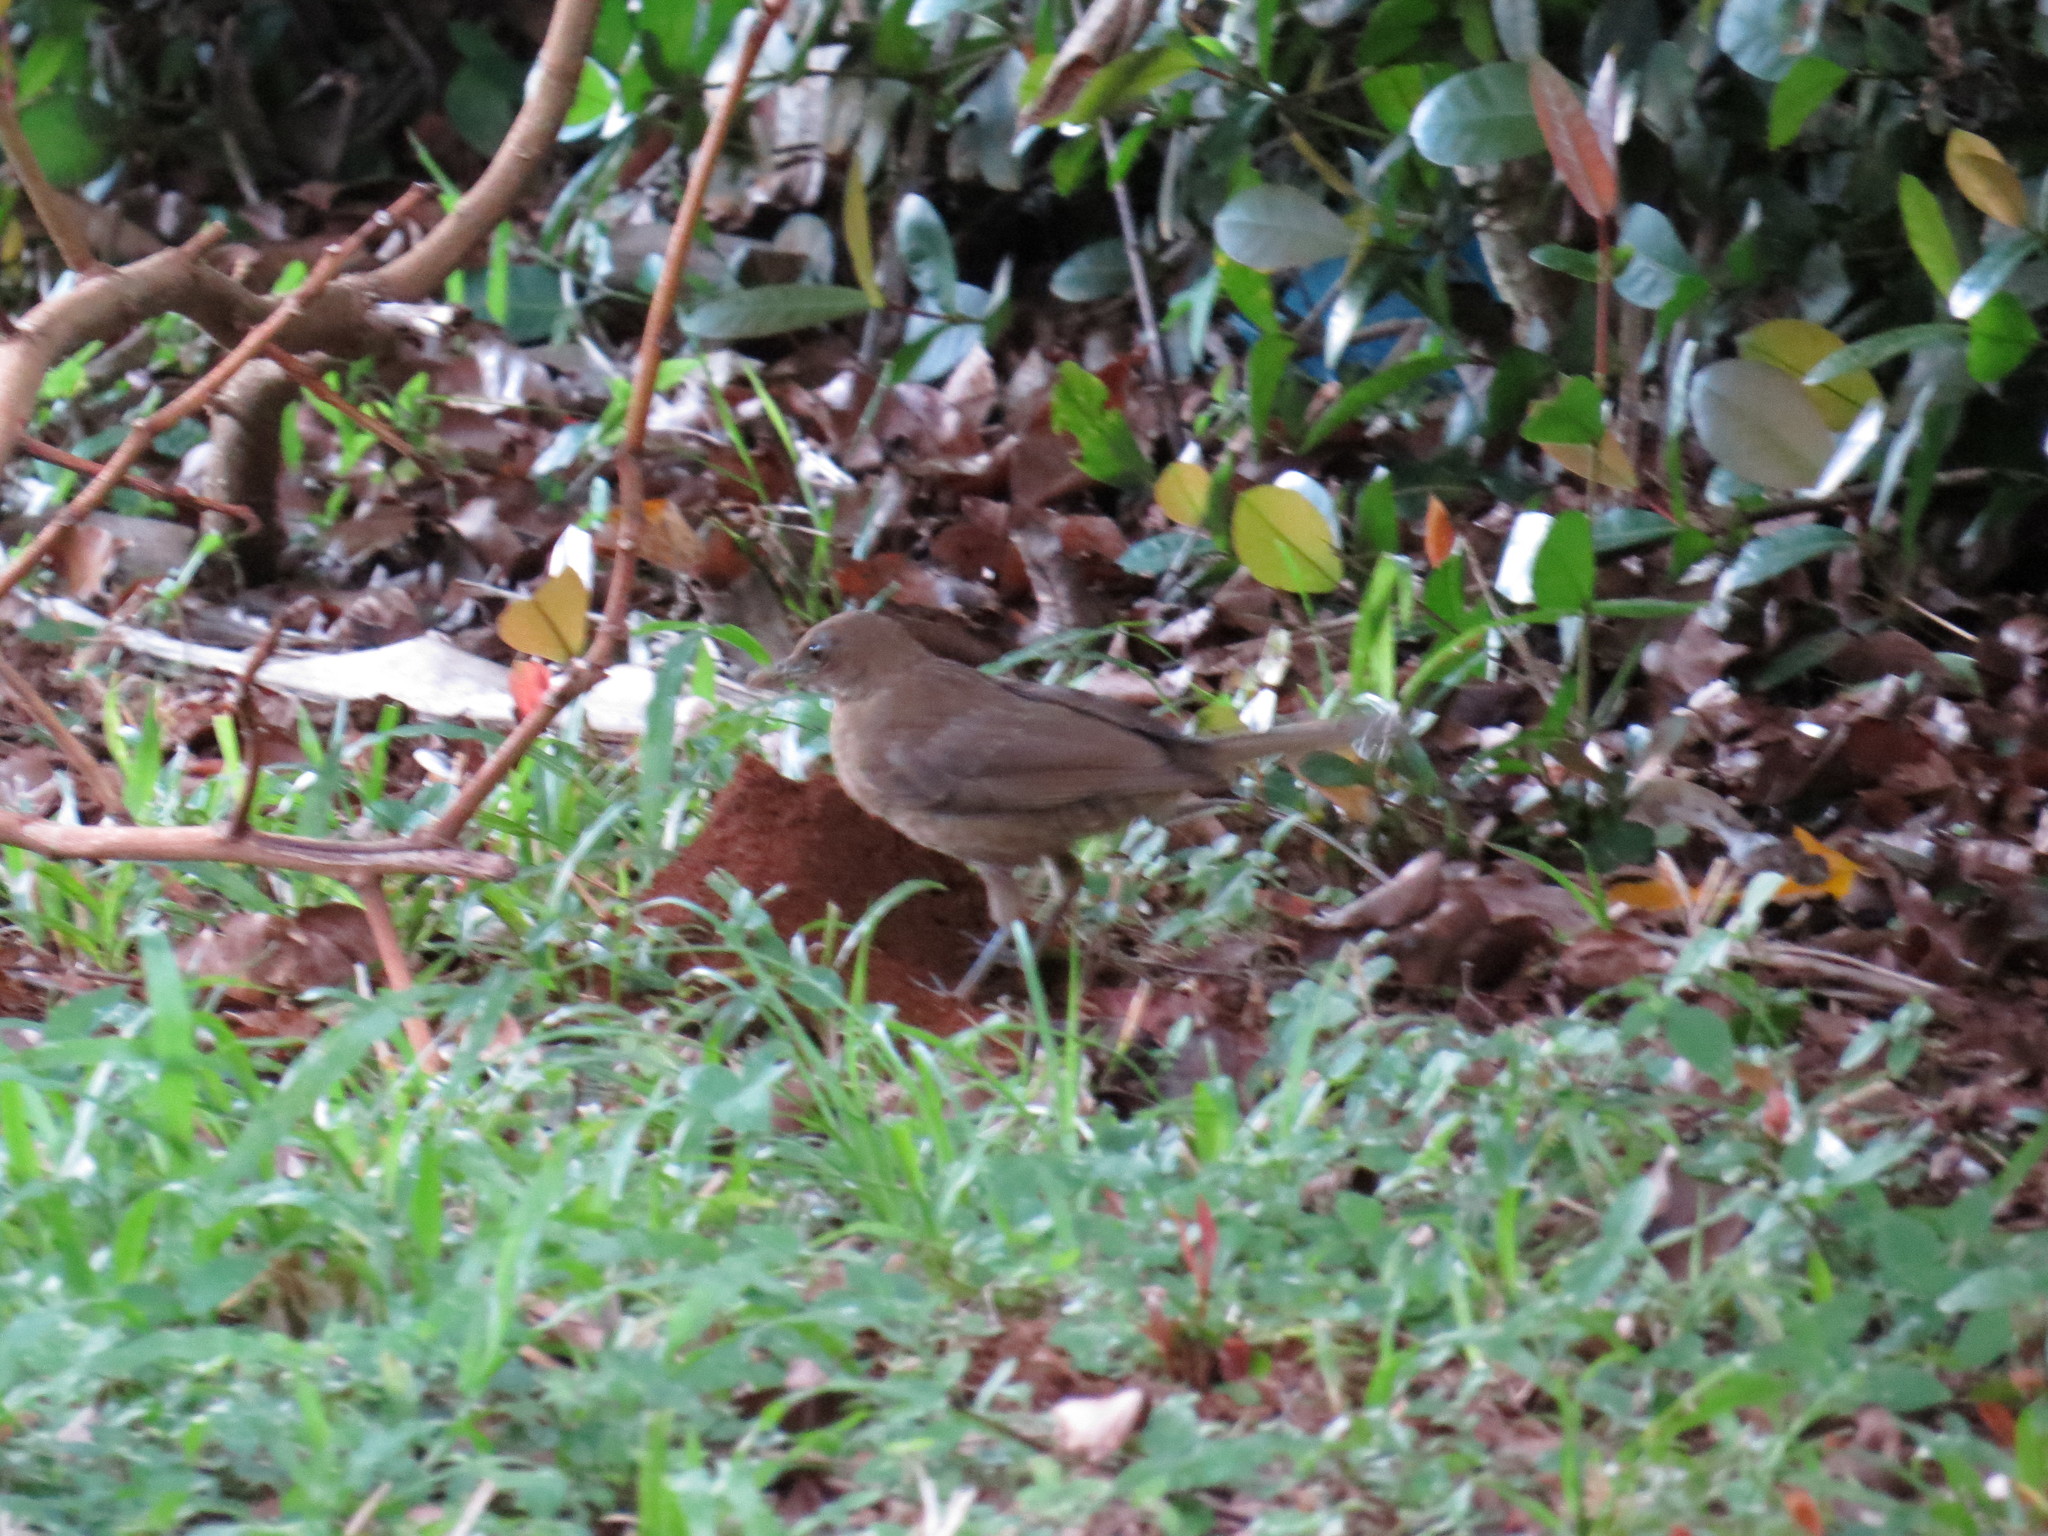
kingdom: Animalia
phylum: Chordata
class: Aves
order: Passeriformes
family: Turdidae
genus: Turdus
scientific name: Turdus grayi
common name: Clay-colored thrush
